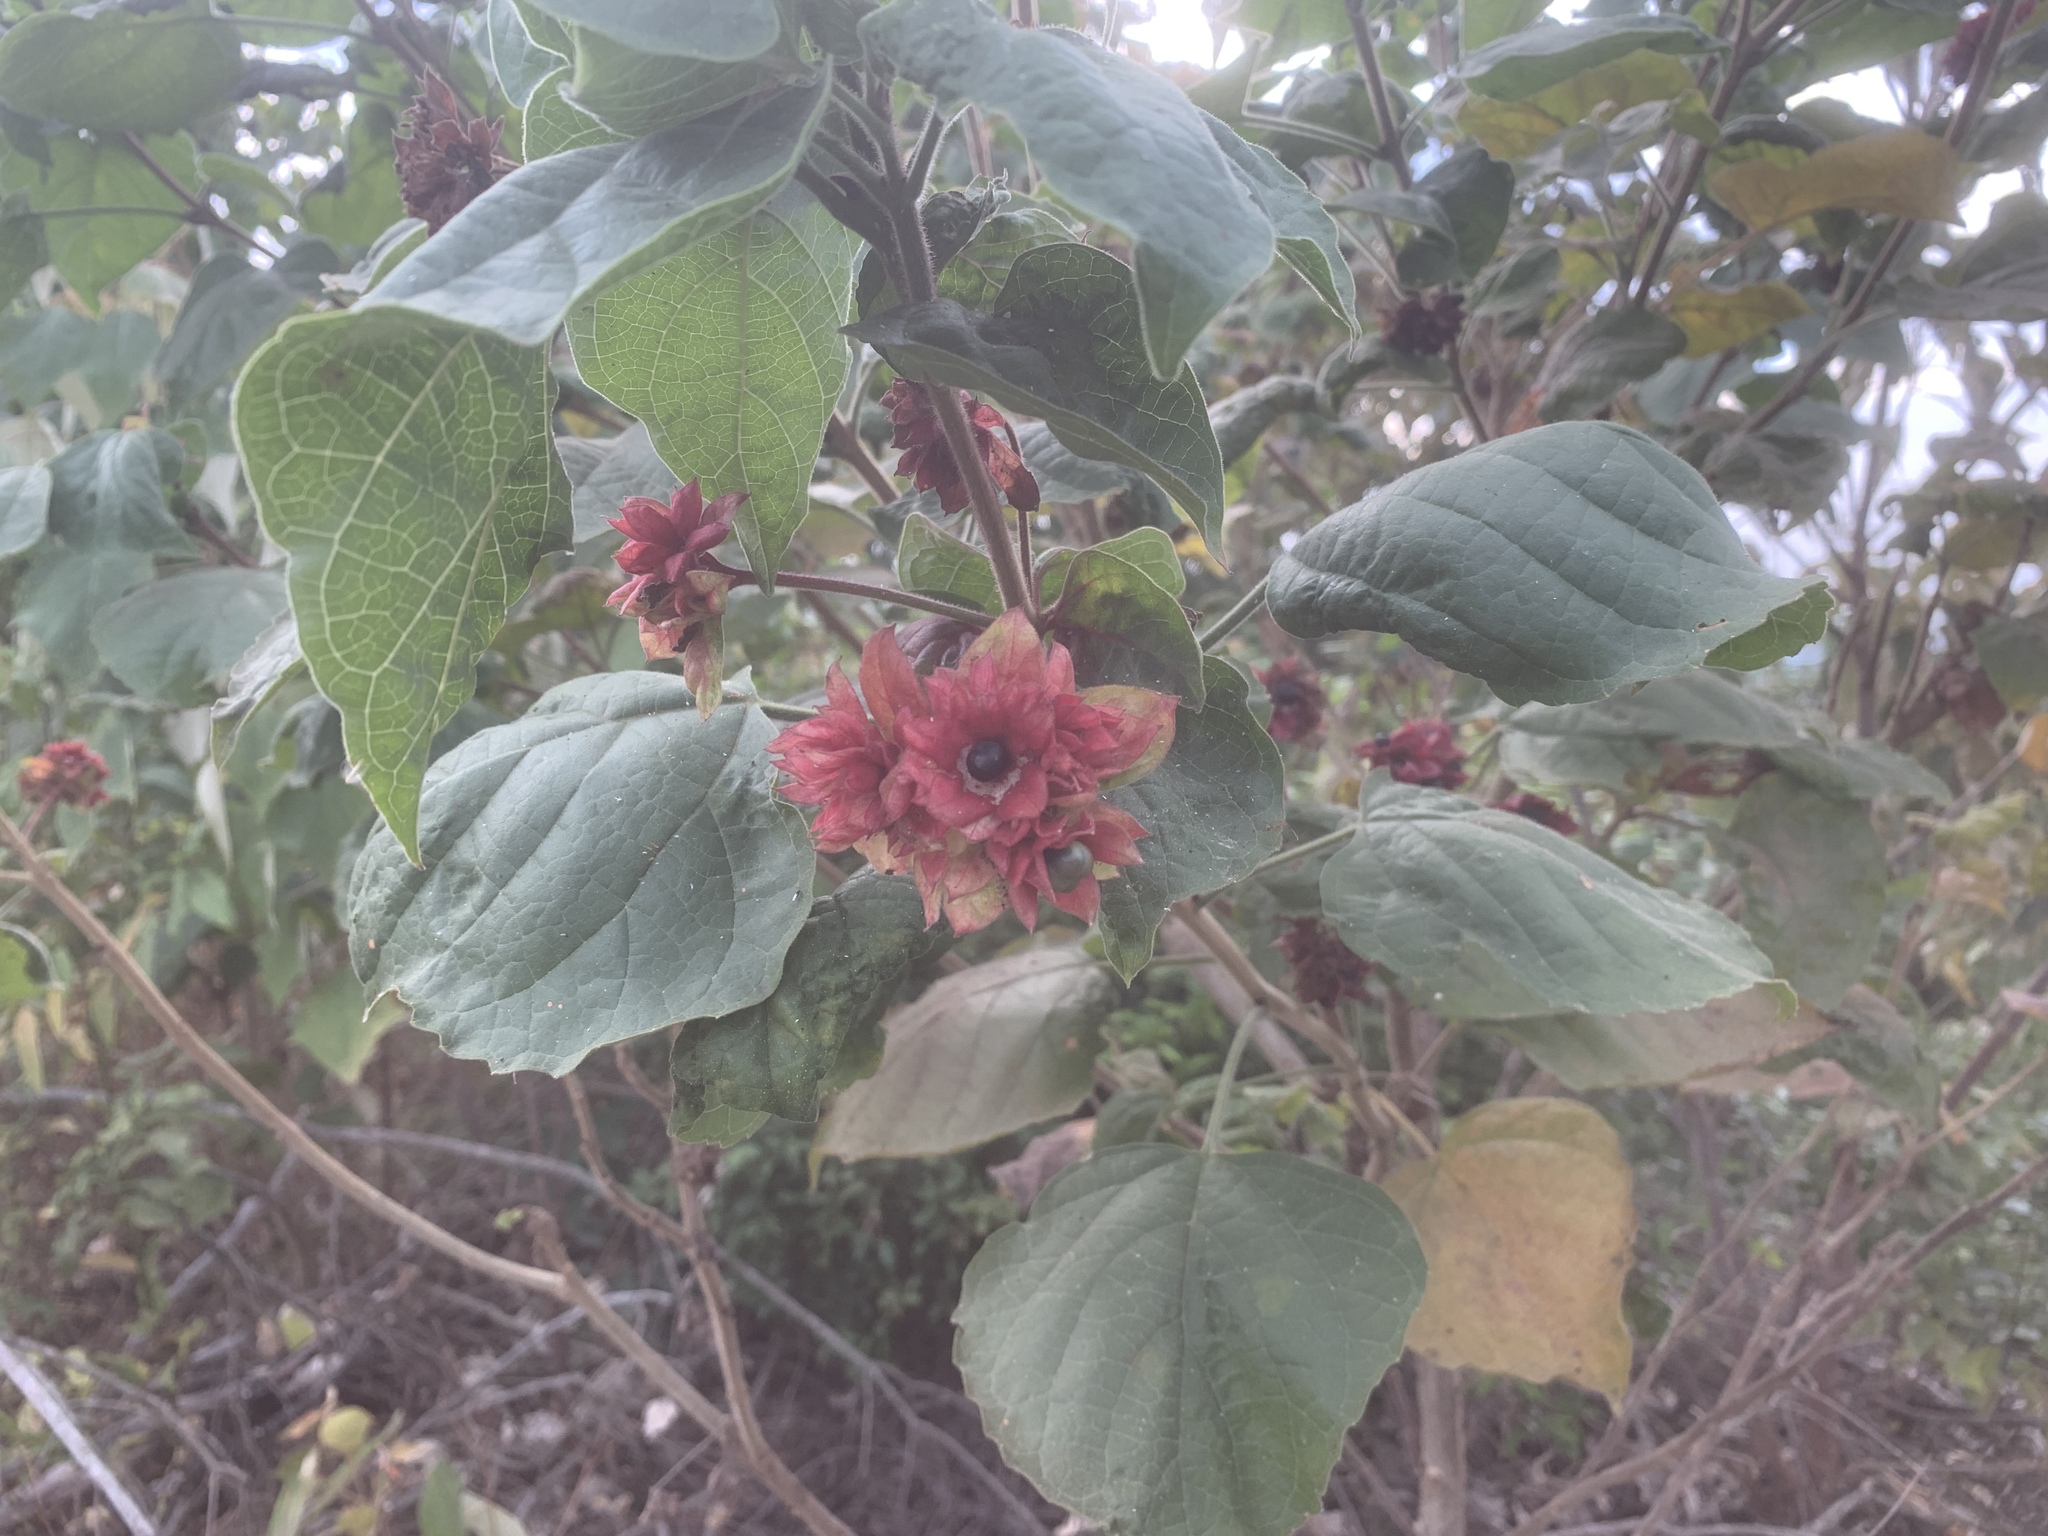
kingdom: Plantae
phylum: Tracheophyta
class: Magnoliopsida
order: Lamiales
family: Lamiaceae
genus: Clerodendrum
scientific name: Clerodendrum canescens
